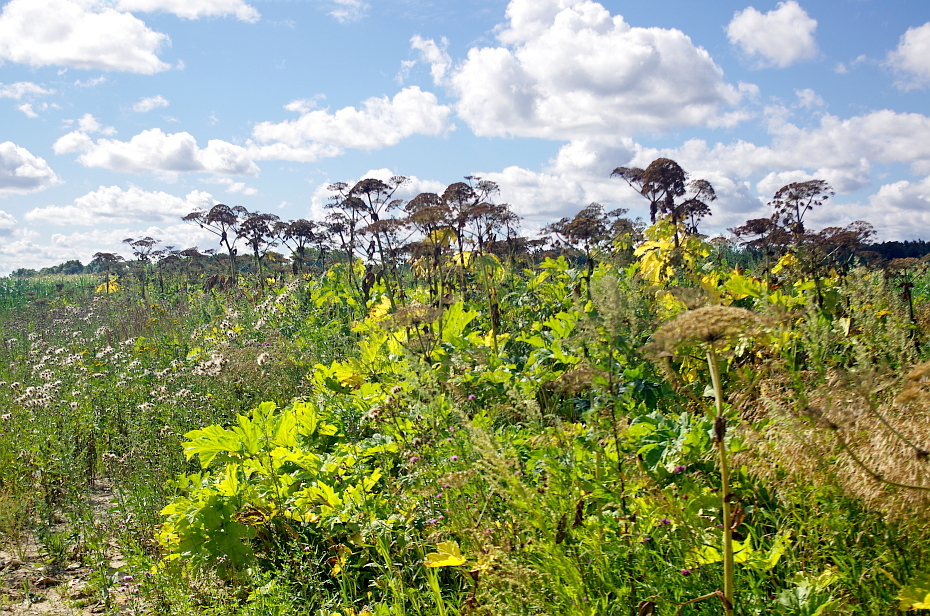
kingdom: Plantae
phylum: Tracheophyta
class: Magnoliopsida
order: Apiales
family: Apiaceae
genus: Heracleum
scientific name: Heracleum sosnowskyi
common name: Sosnowsky's hogweed
